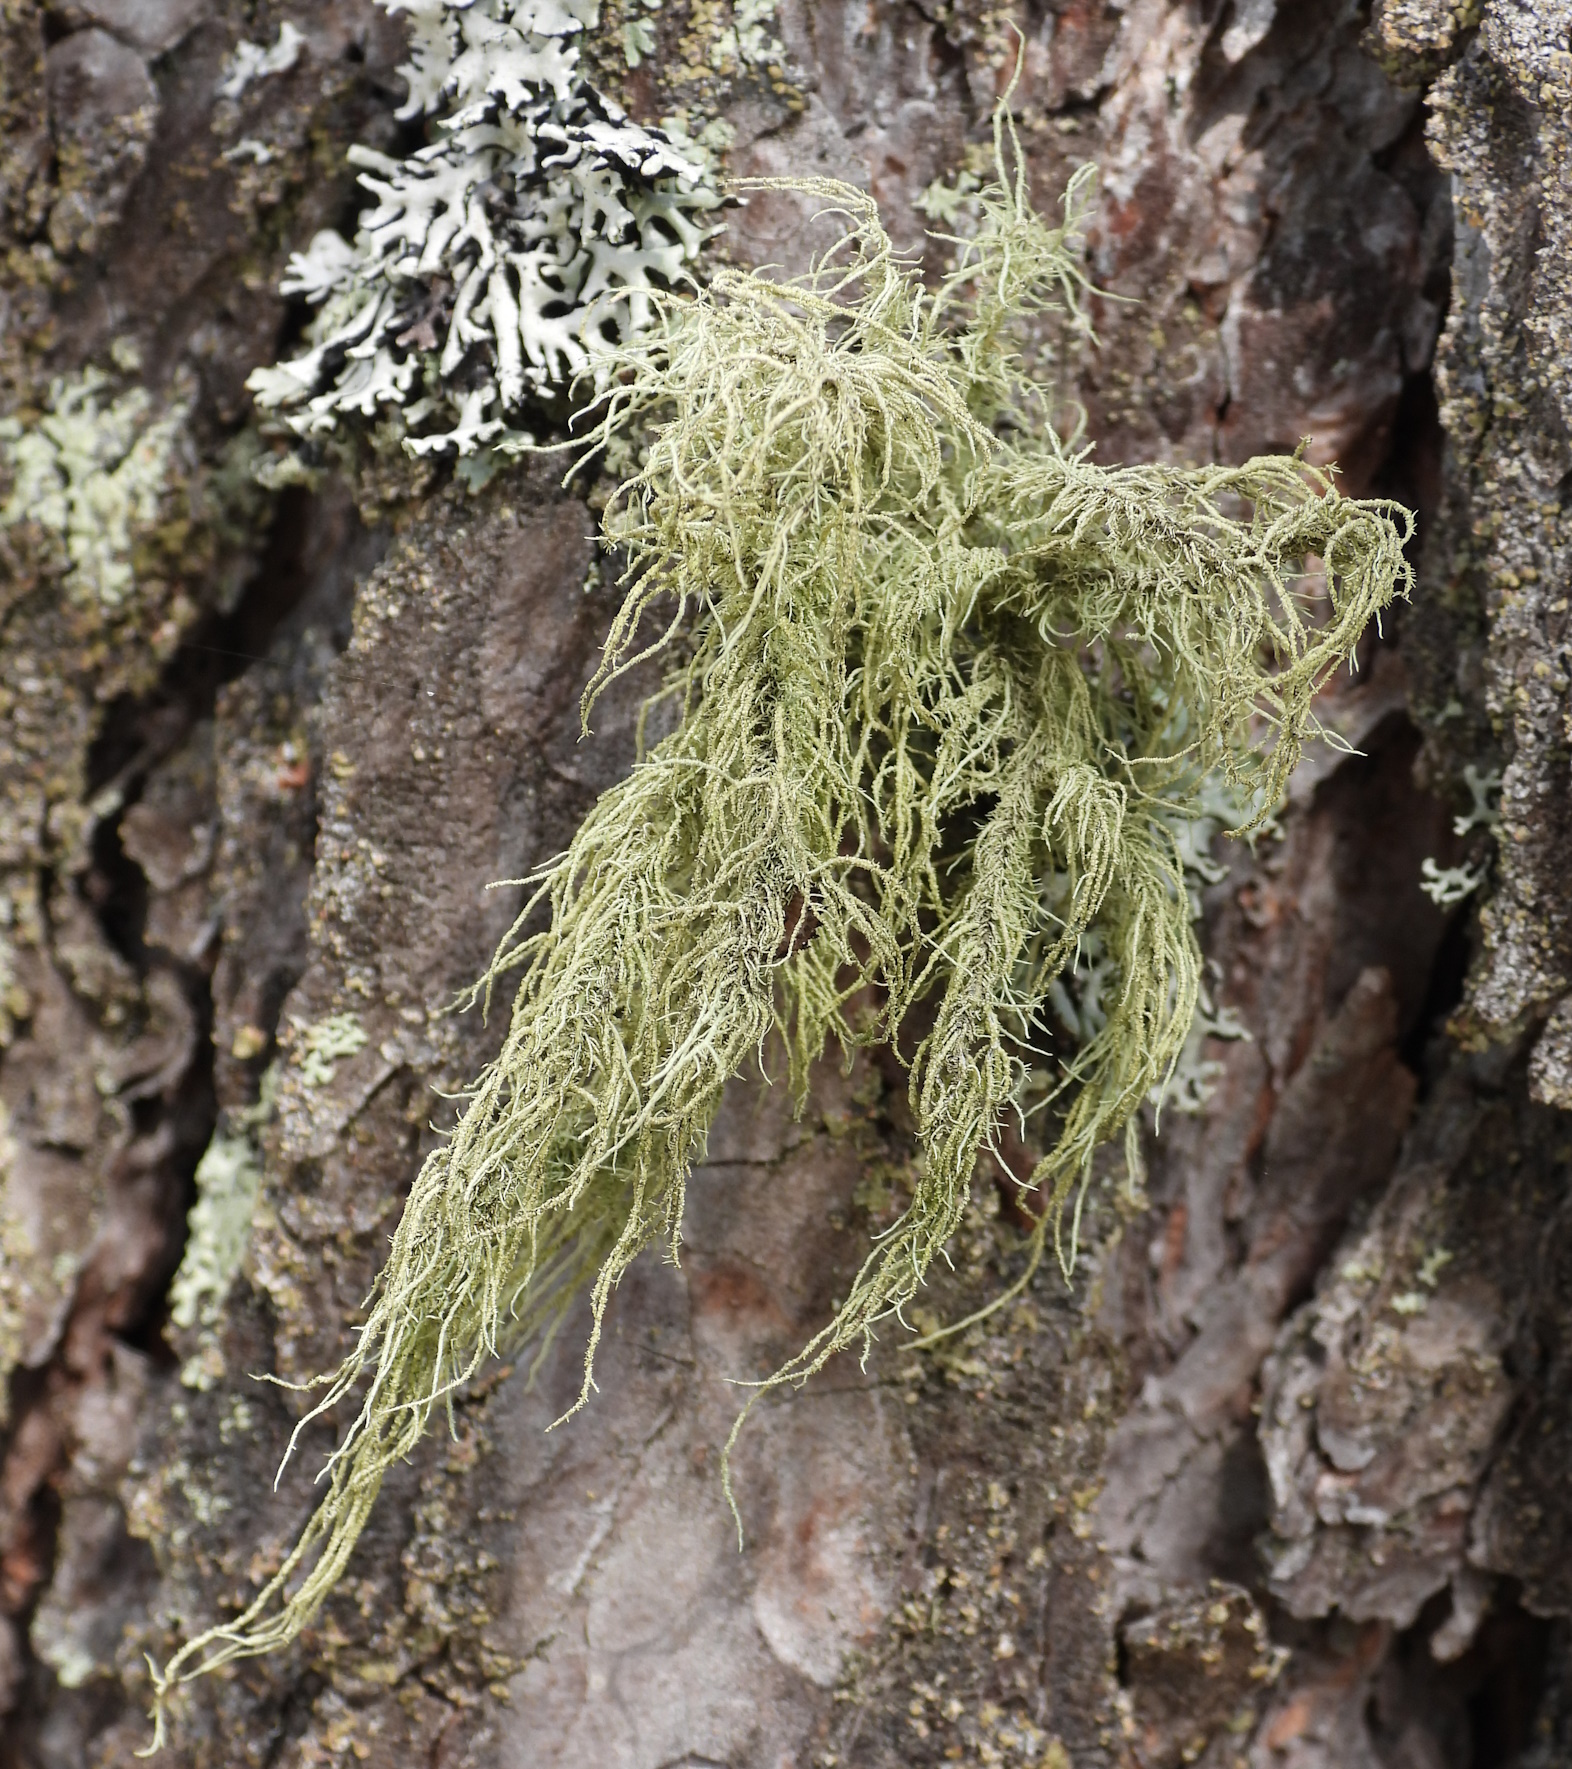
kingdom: Fungi
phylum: Ascomycota
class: Lecanoromycetes
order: Lecanorales
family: Parmeliaceae
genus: Usnea
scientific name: Usnea hirta
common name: Bristly beard lichen
